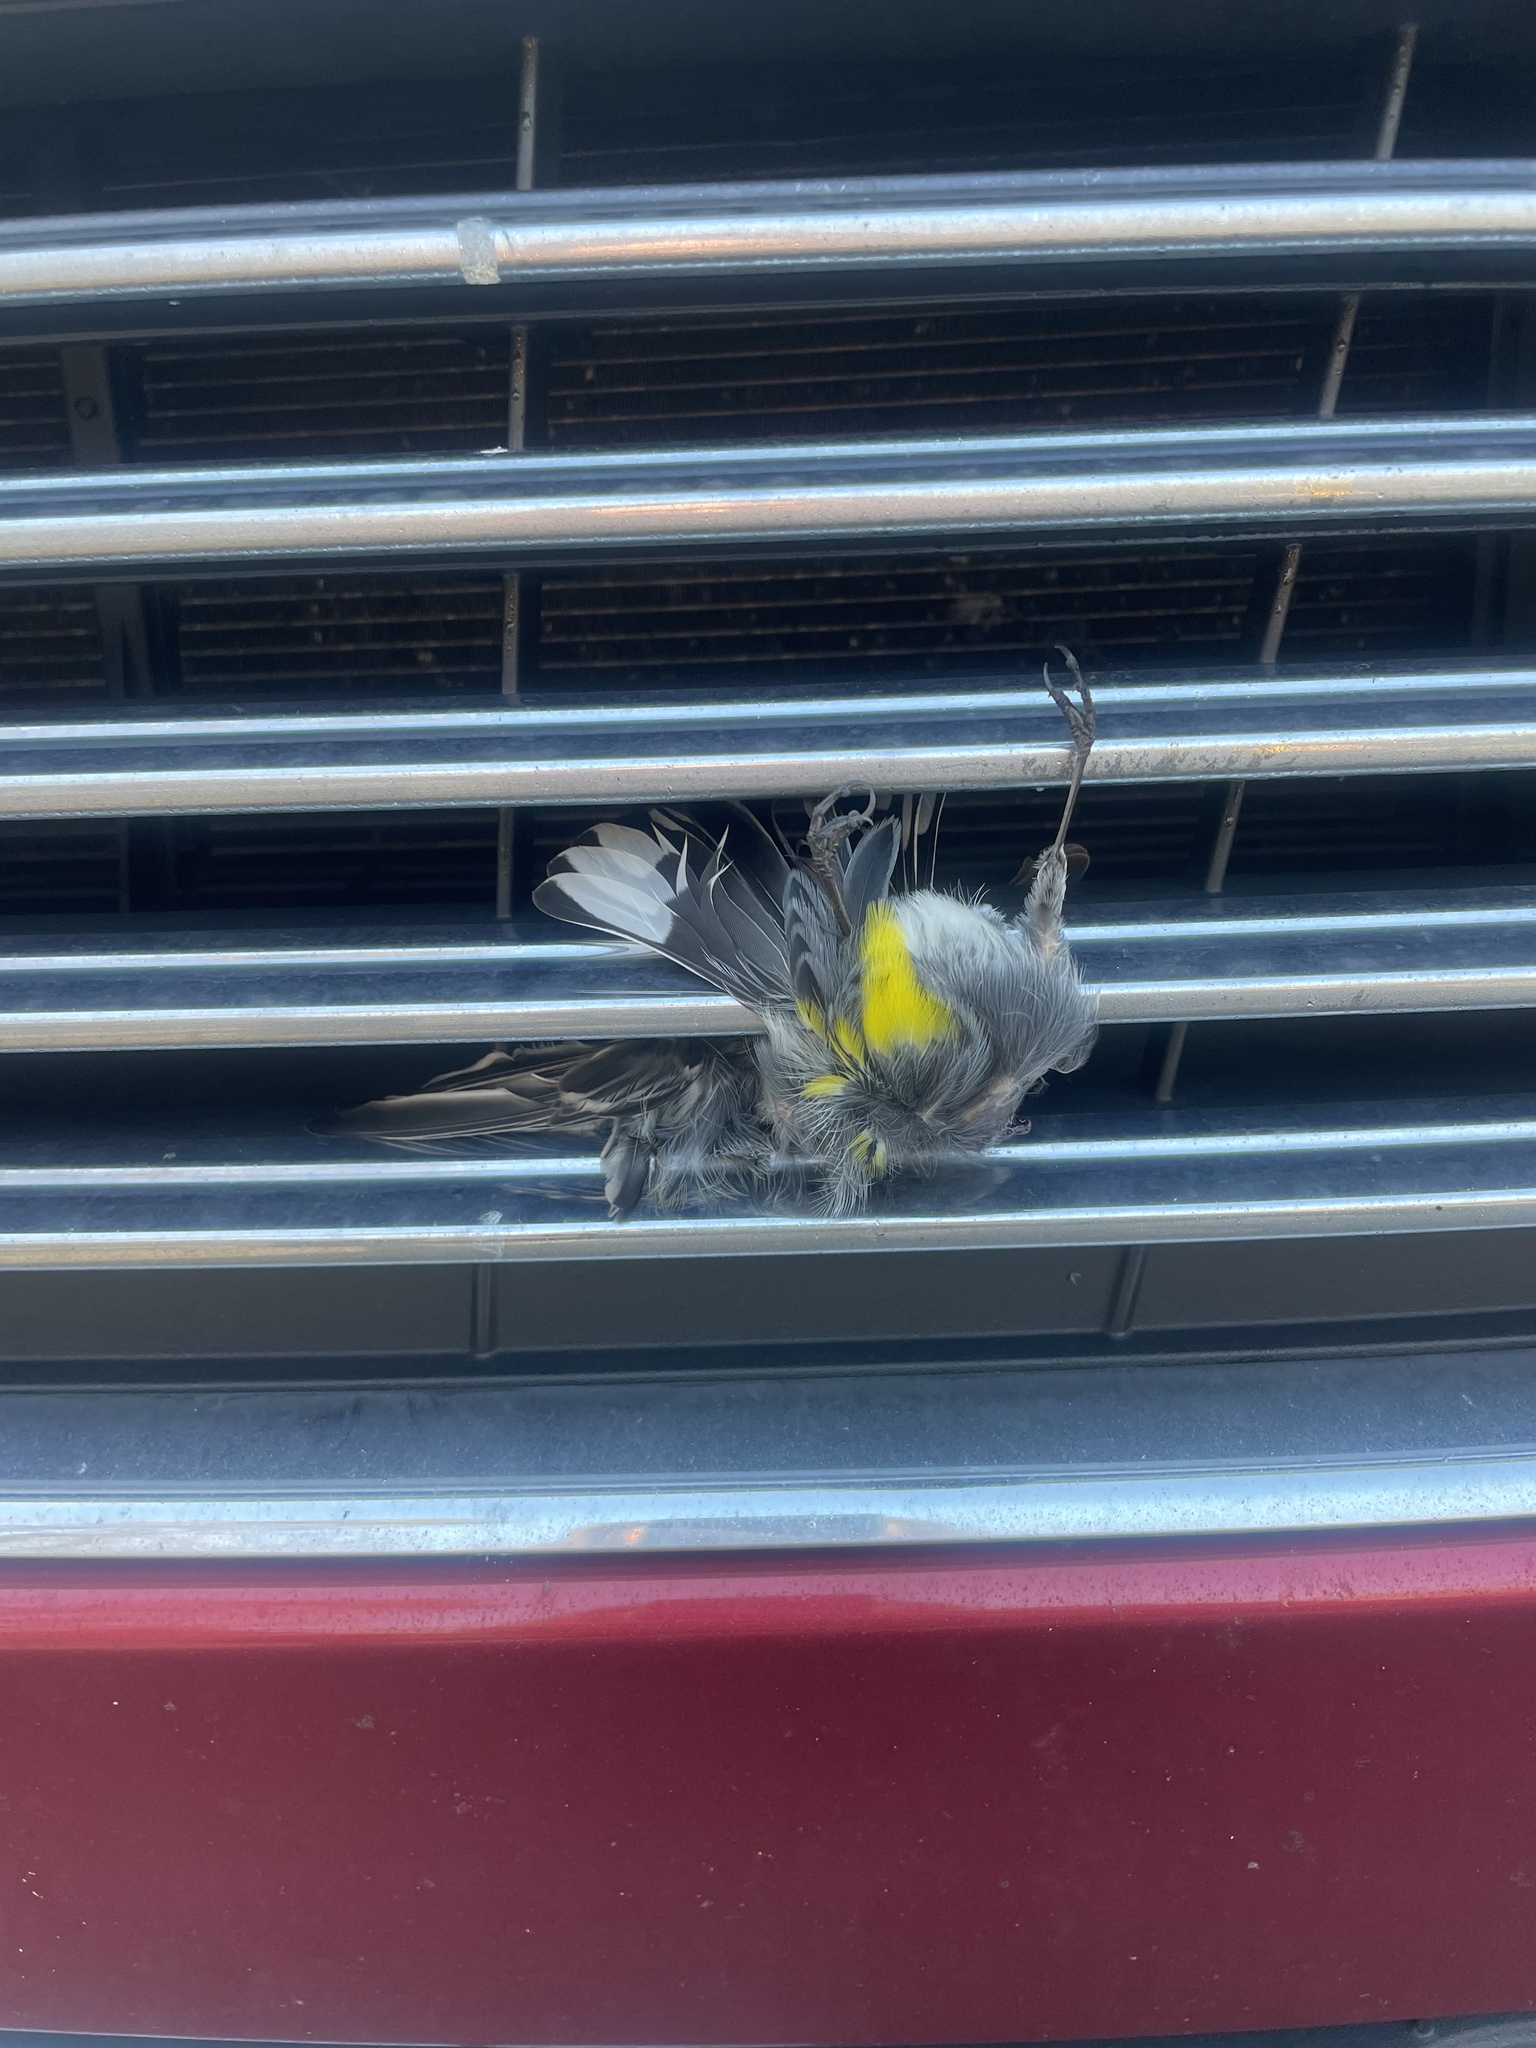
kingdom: Animalia
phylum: Chordata
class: Aves
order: Passeriformes
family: Parulidae
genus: Setophaga
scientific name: Setophaga coronata
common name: Myrtle warbler
